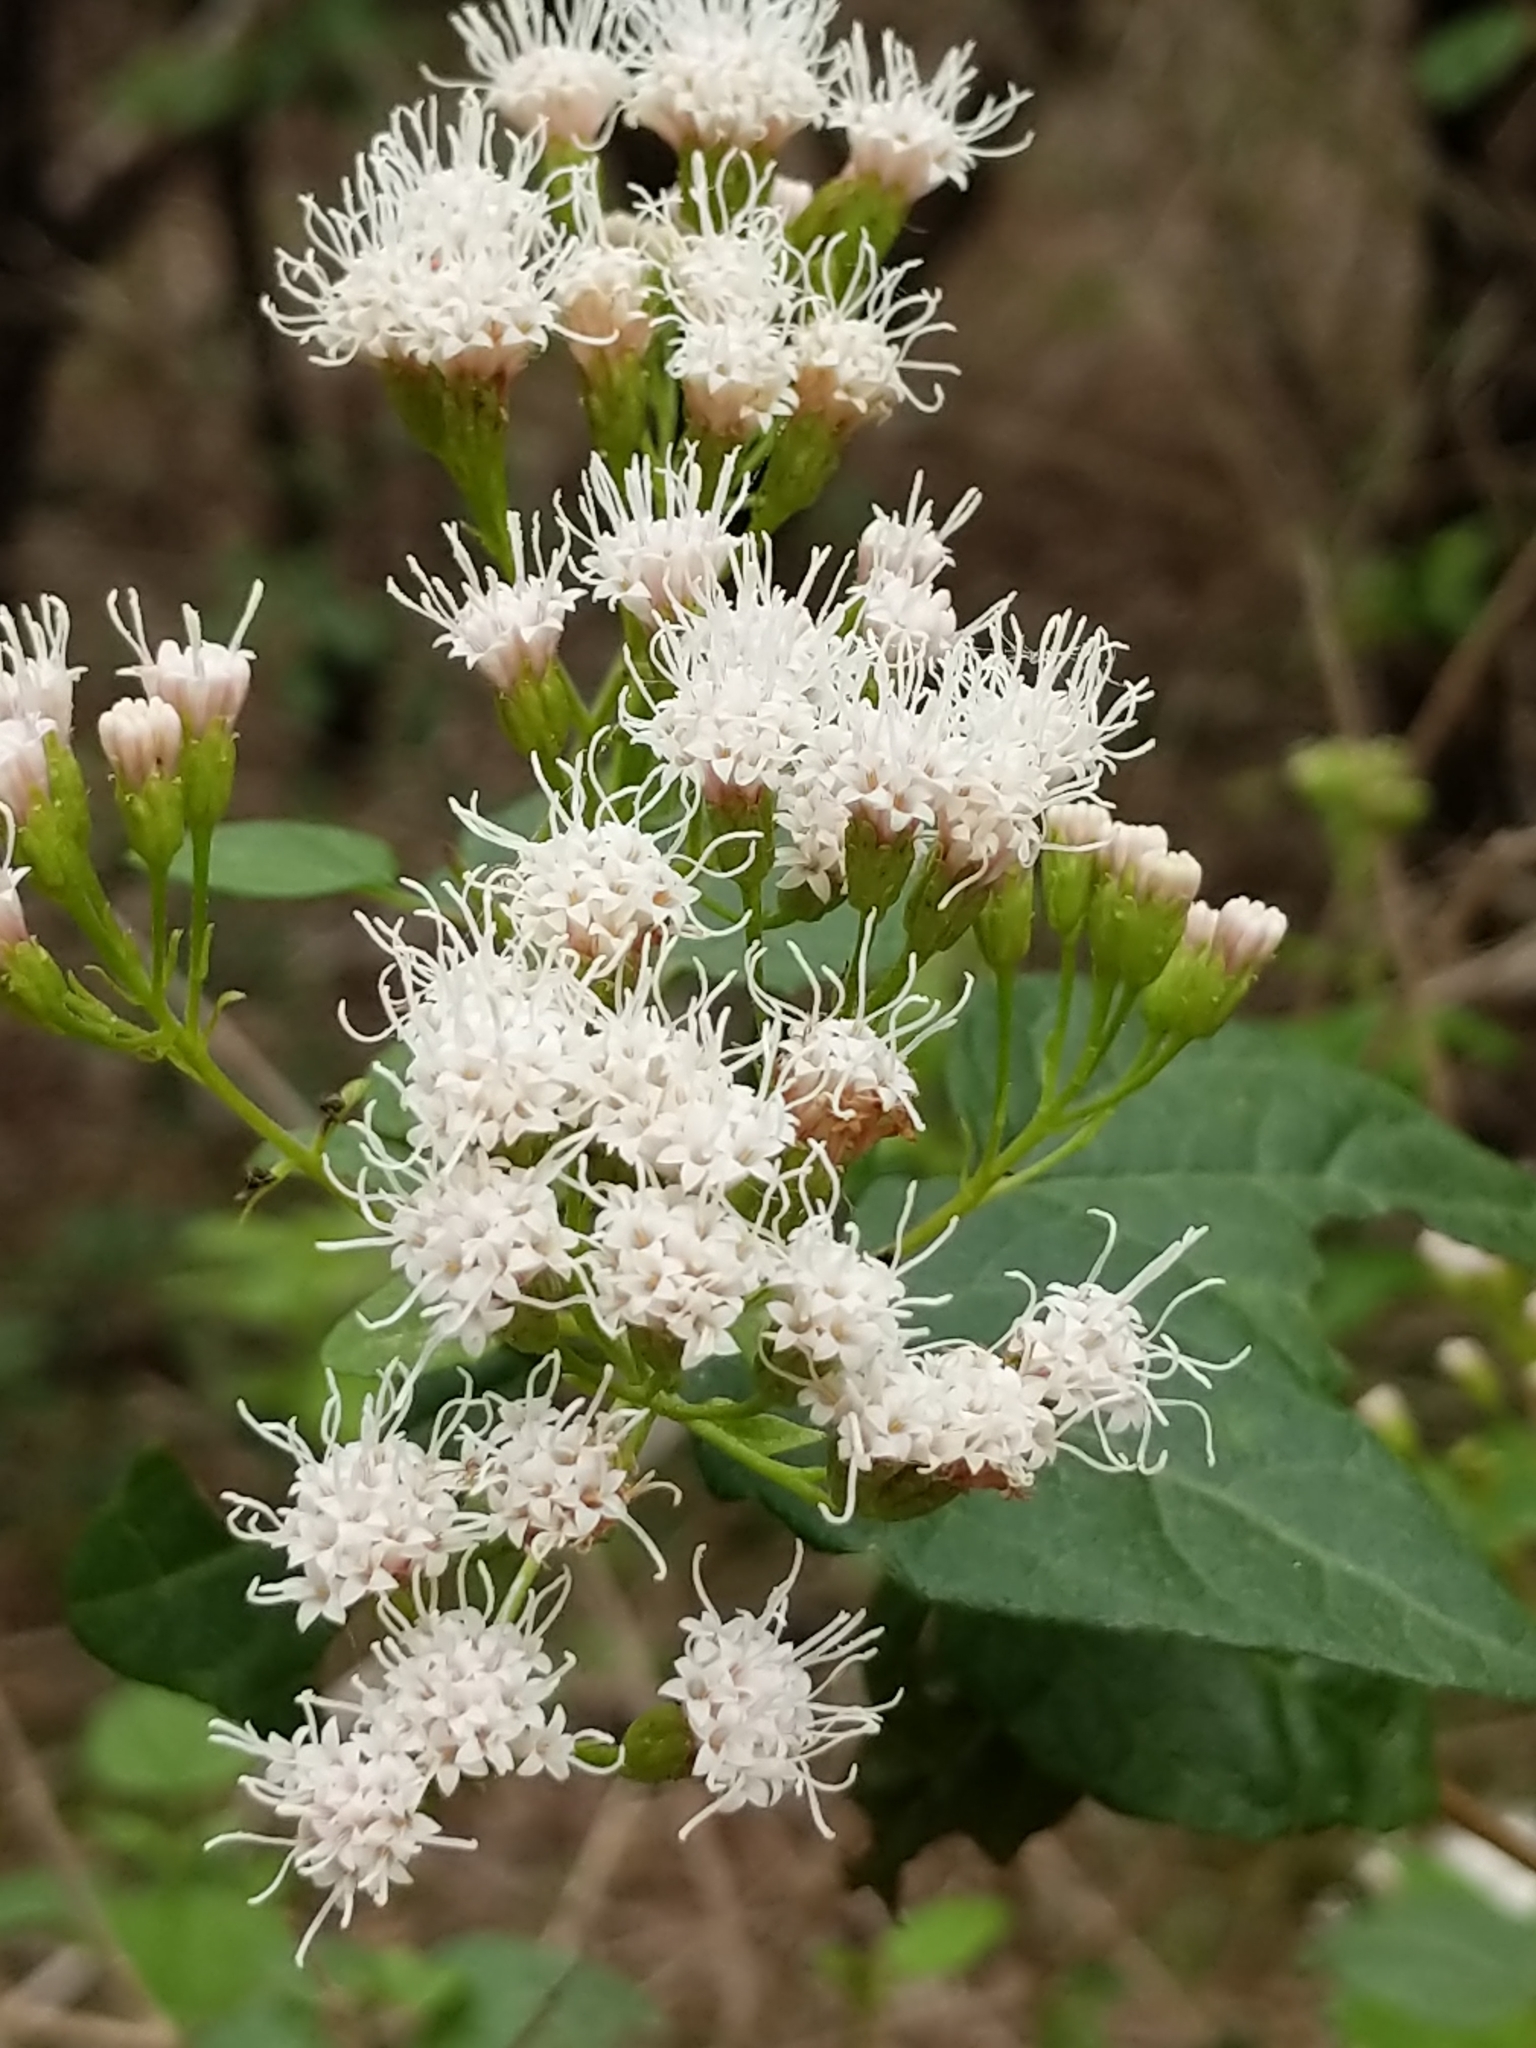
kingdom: Plantae
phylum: Tracheophyta
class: Magnoliopsida
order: Asterales
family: Asteraceae
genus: Ageratina
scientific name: Ageratina havanensis
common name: Havana snakeroot
